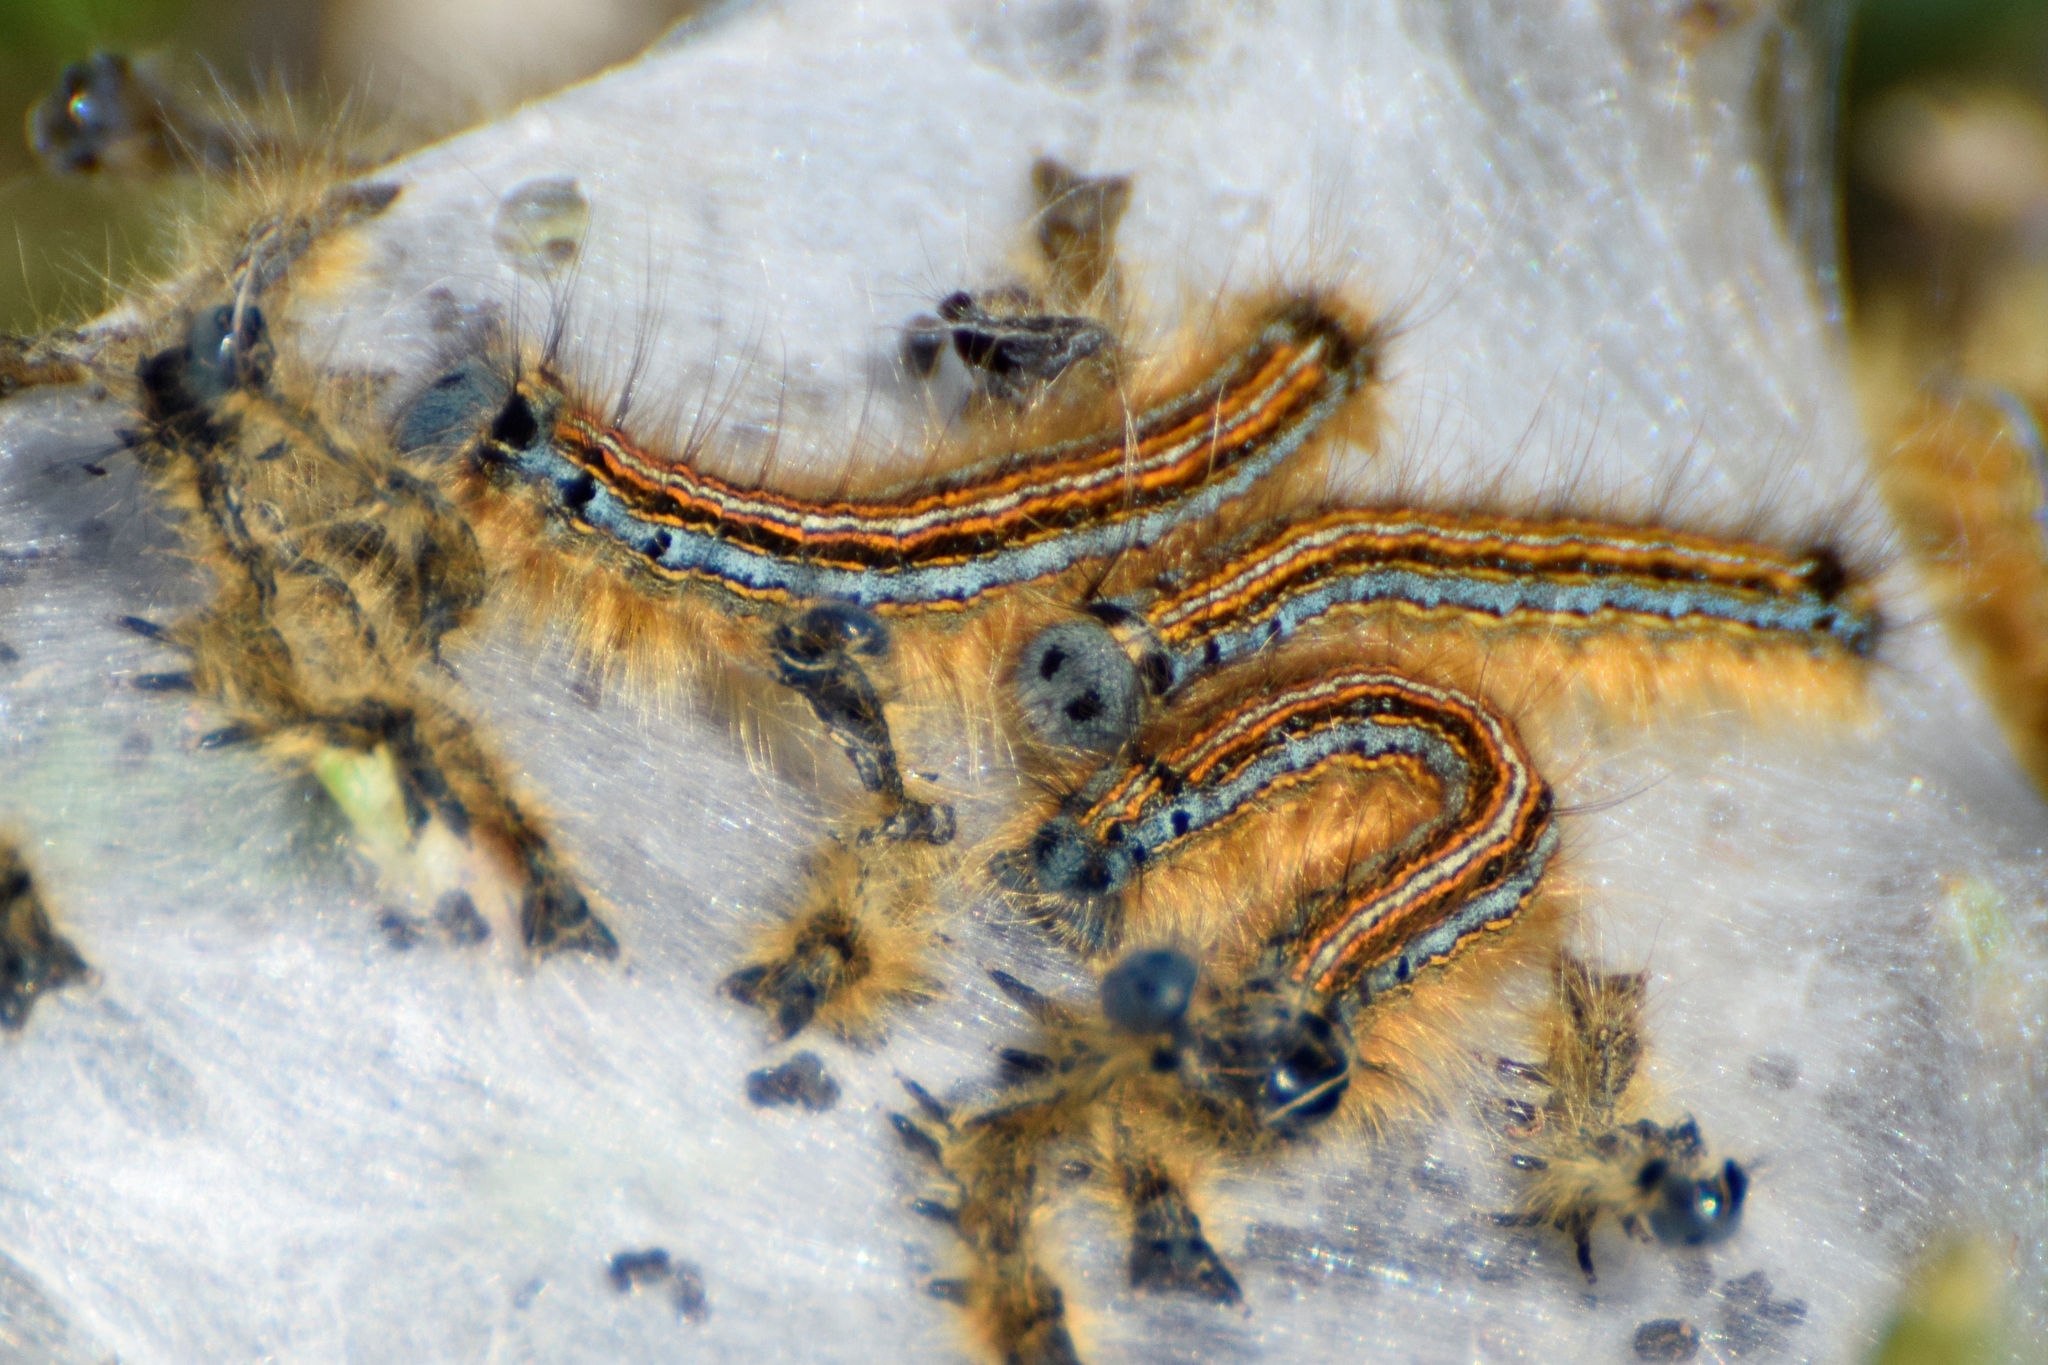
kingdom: Animalia
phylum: Arthropoda
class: Insecta
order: Lepidoptera
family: Lasiocampidae
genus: Malacosoma
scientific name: Malacosoma neustria
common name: The lackey
